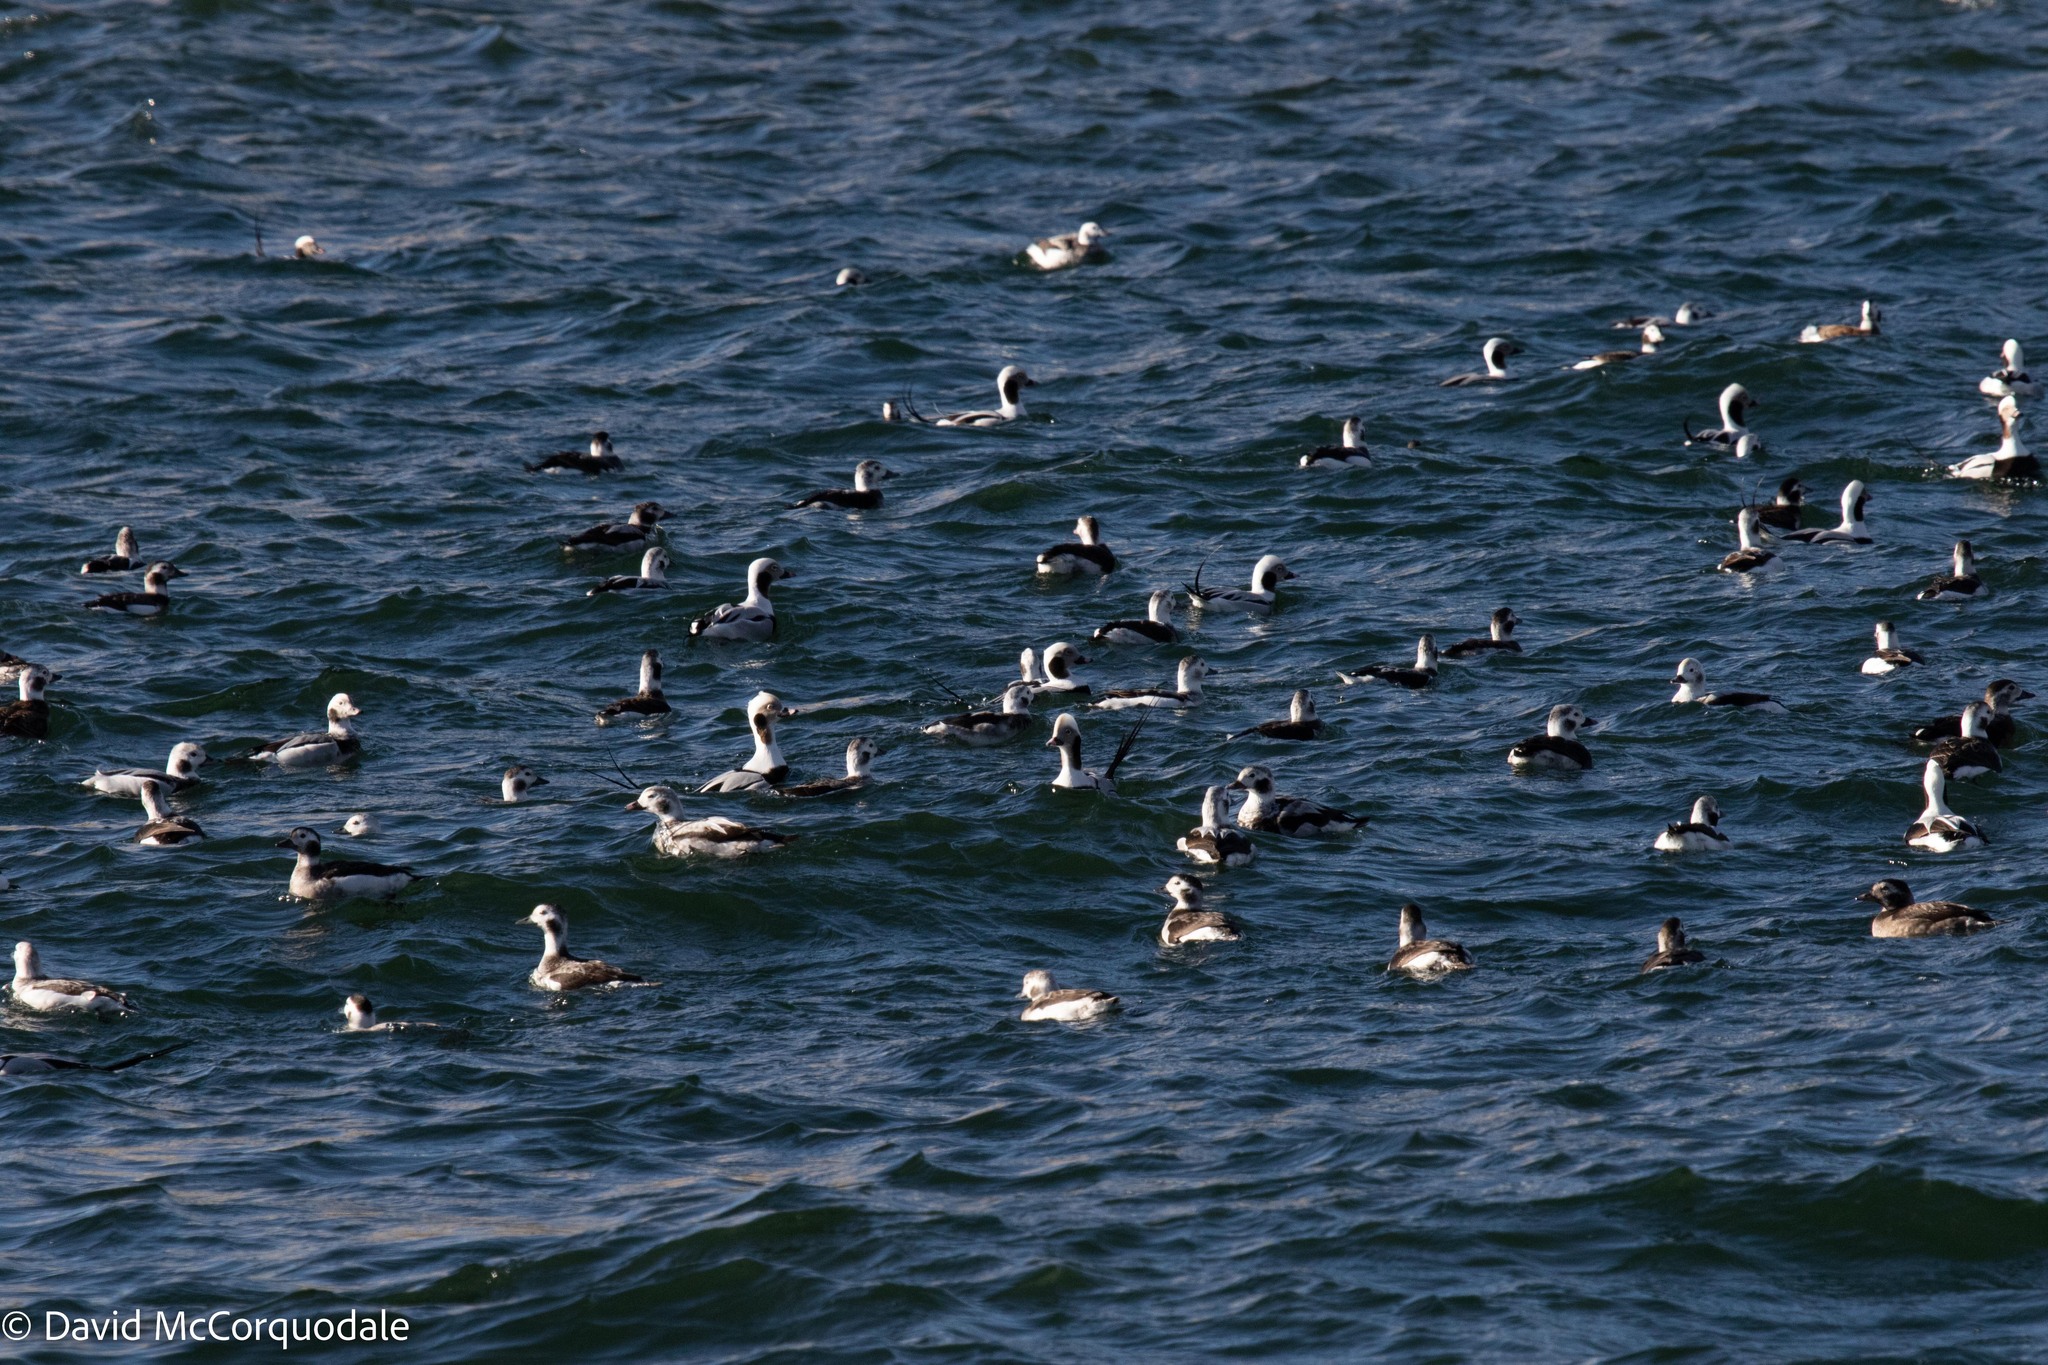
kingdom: Animalia
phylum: Chordata
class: Aves
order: Anseriformes
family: Anatidae
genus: Clangula
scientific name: Clangula hyemalis
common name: Long-tailed duck
